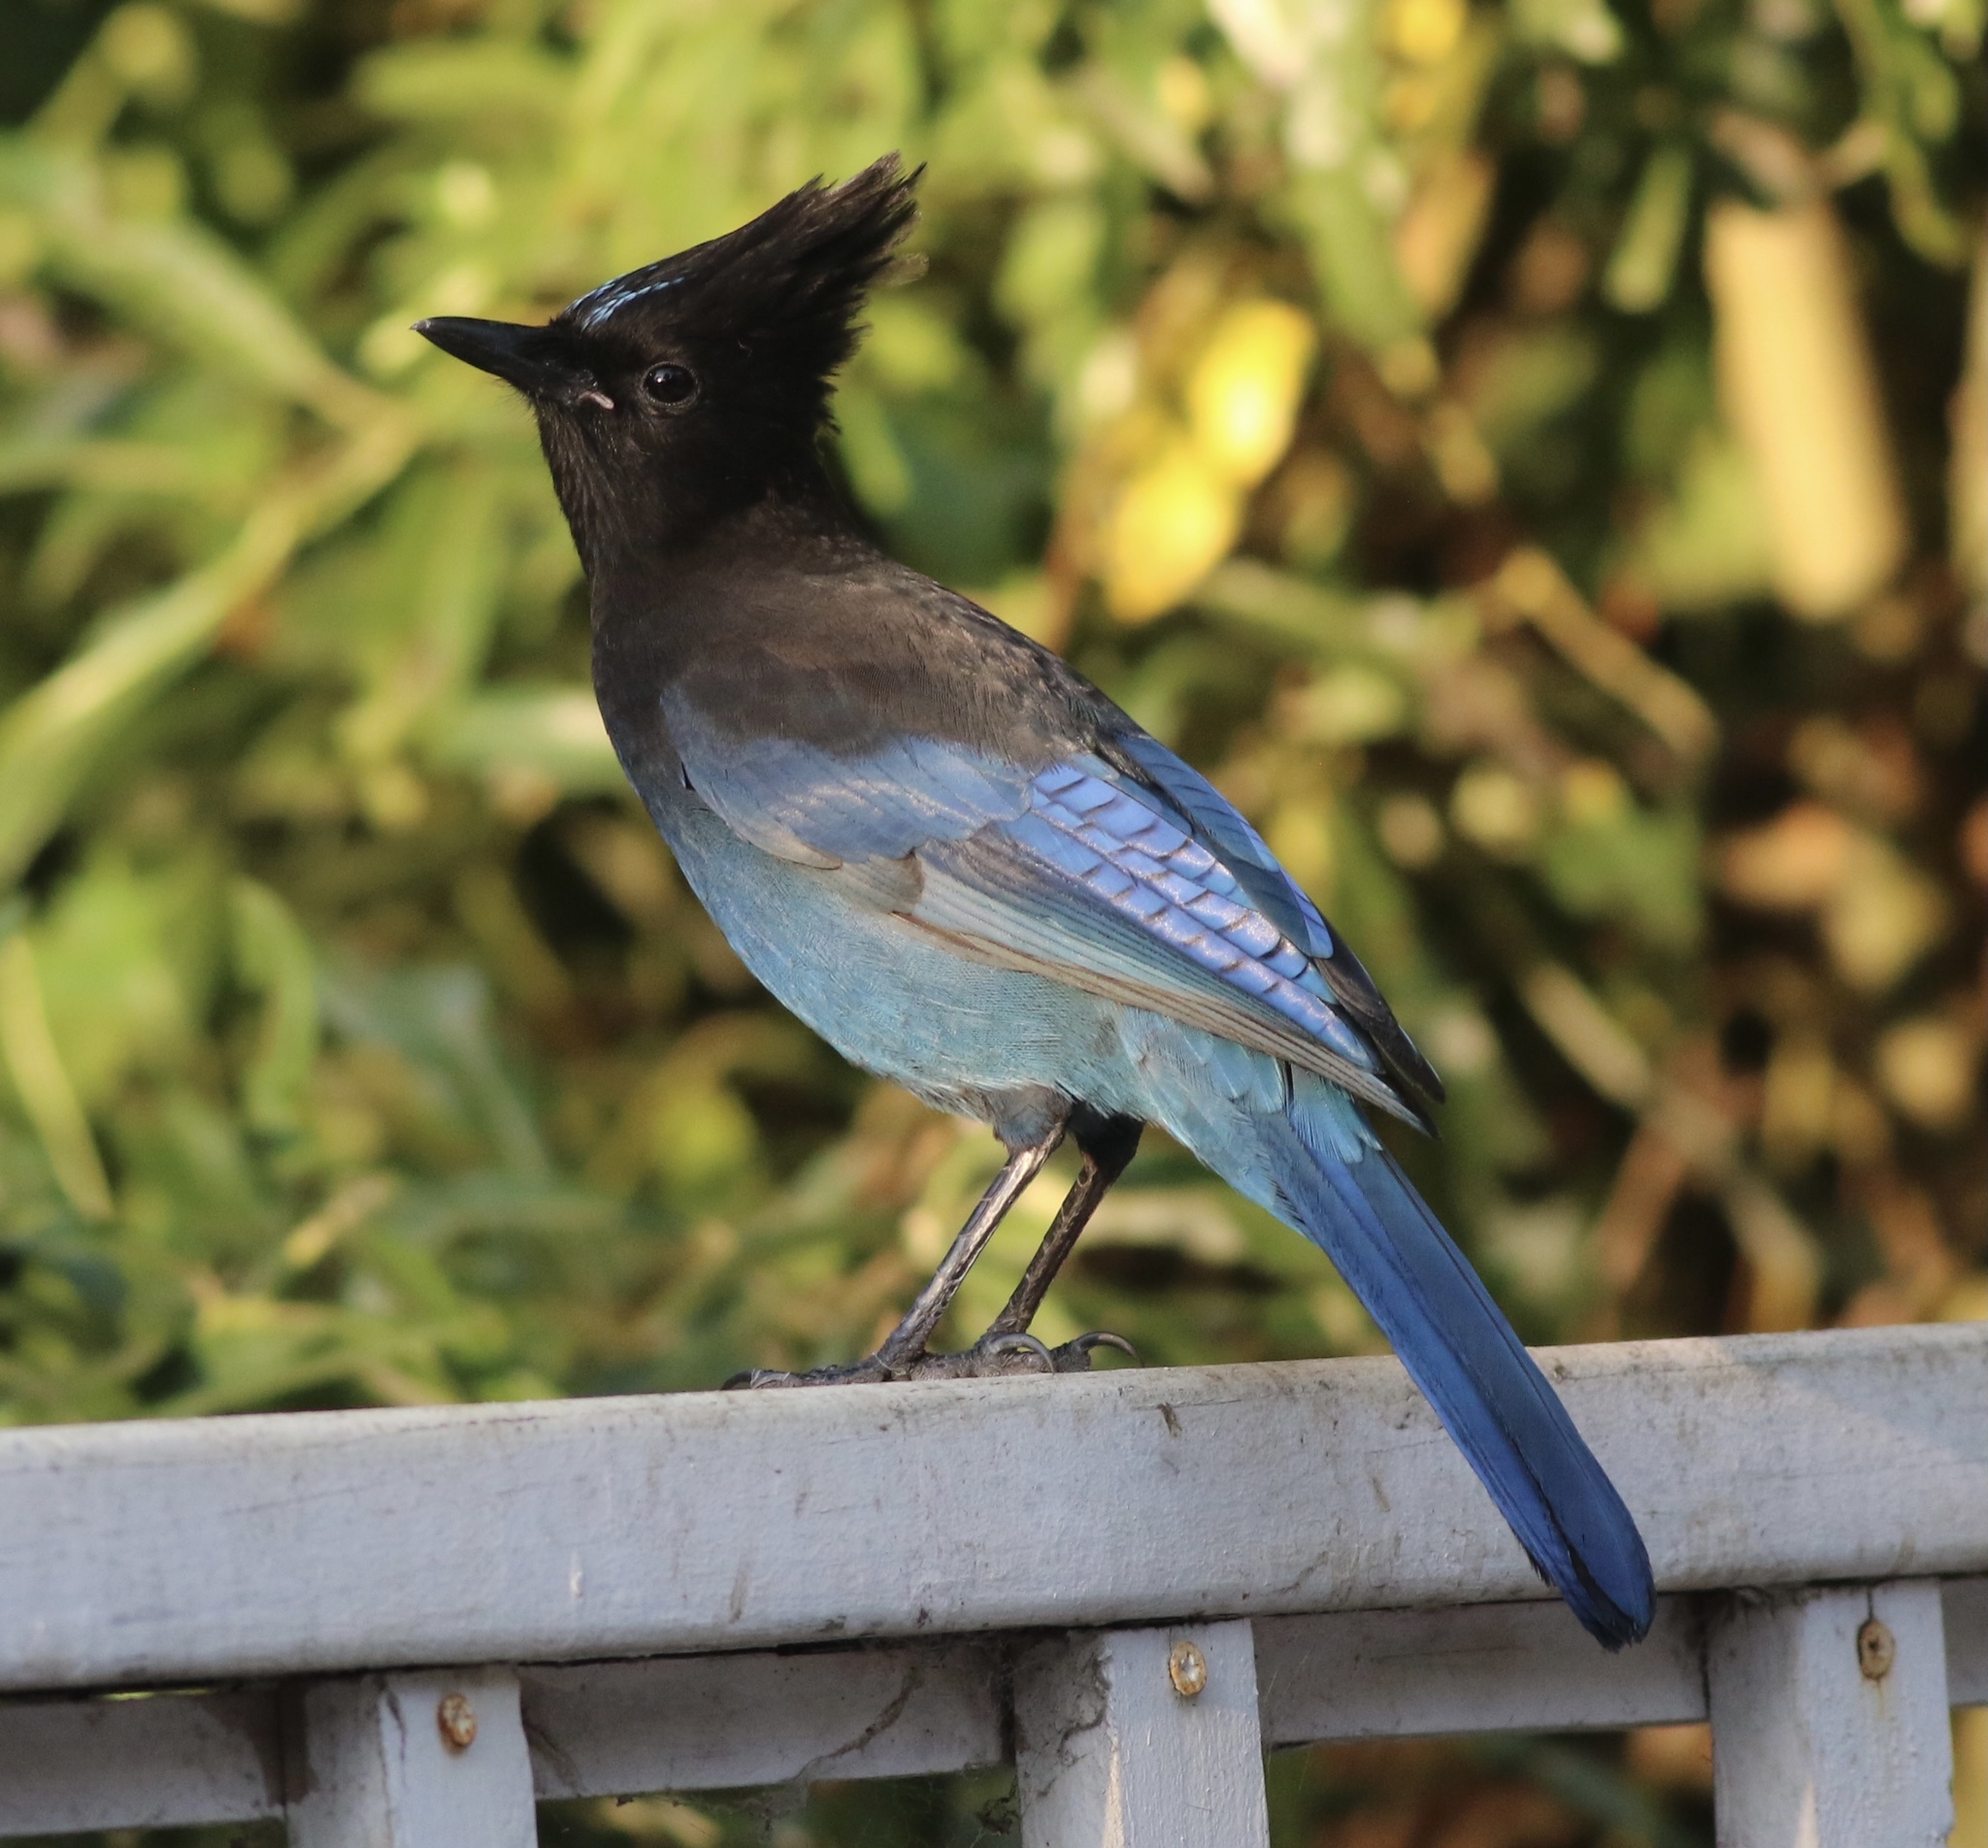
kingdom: Animalia
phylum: Chordata
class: Aves
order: Passeriformes
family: Corvidae
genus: Cyanocitta
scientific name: Cyanocitta stelleri
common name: Steller's jay
